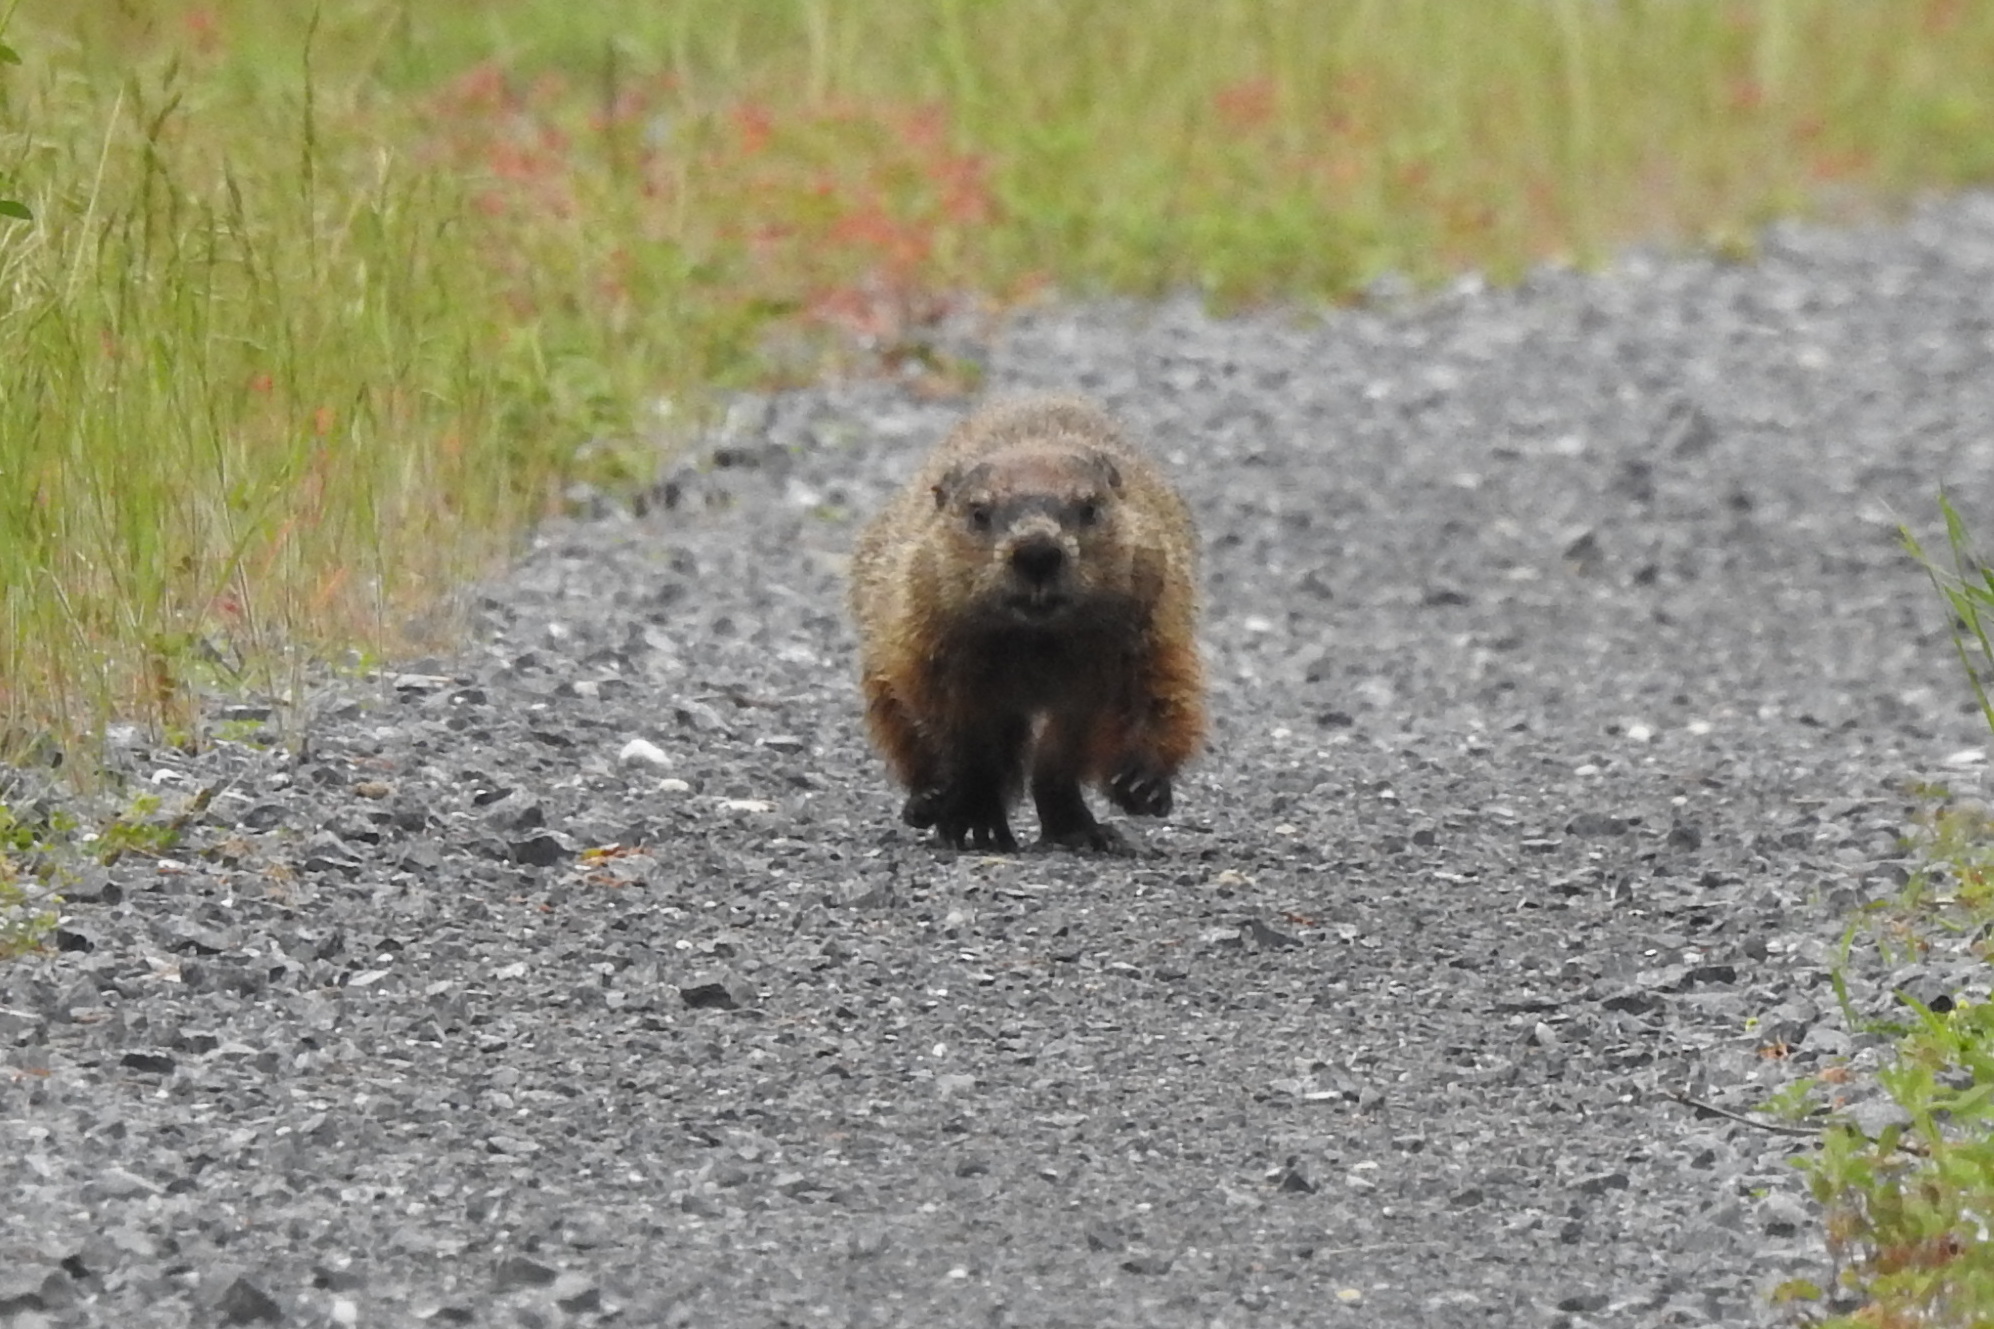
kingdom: Animalia
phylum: Chordata
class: Mammalia
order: Rodentia
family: Sciuridae
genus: Marmota
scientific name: Marmota monax
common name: Groundhog
